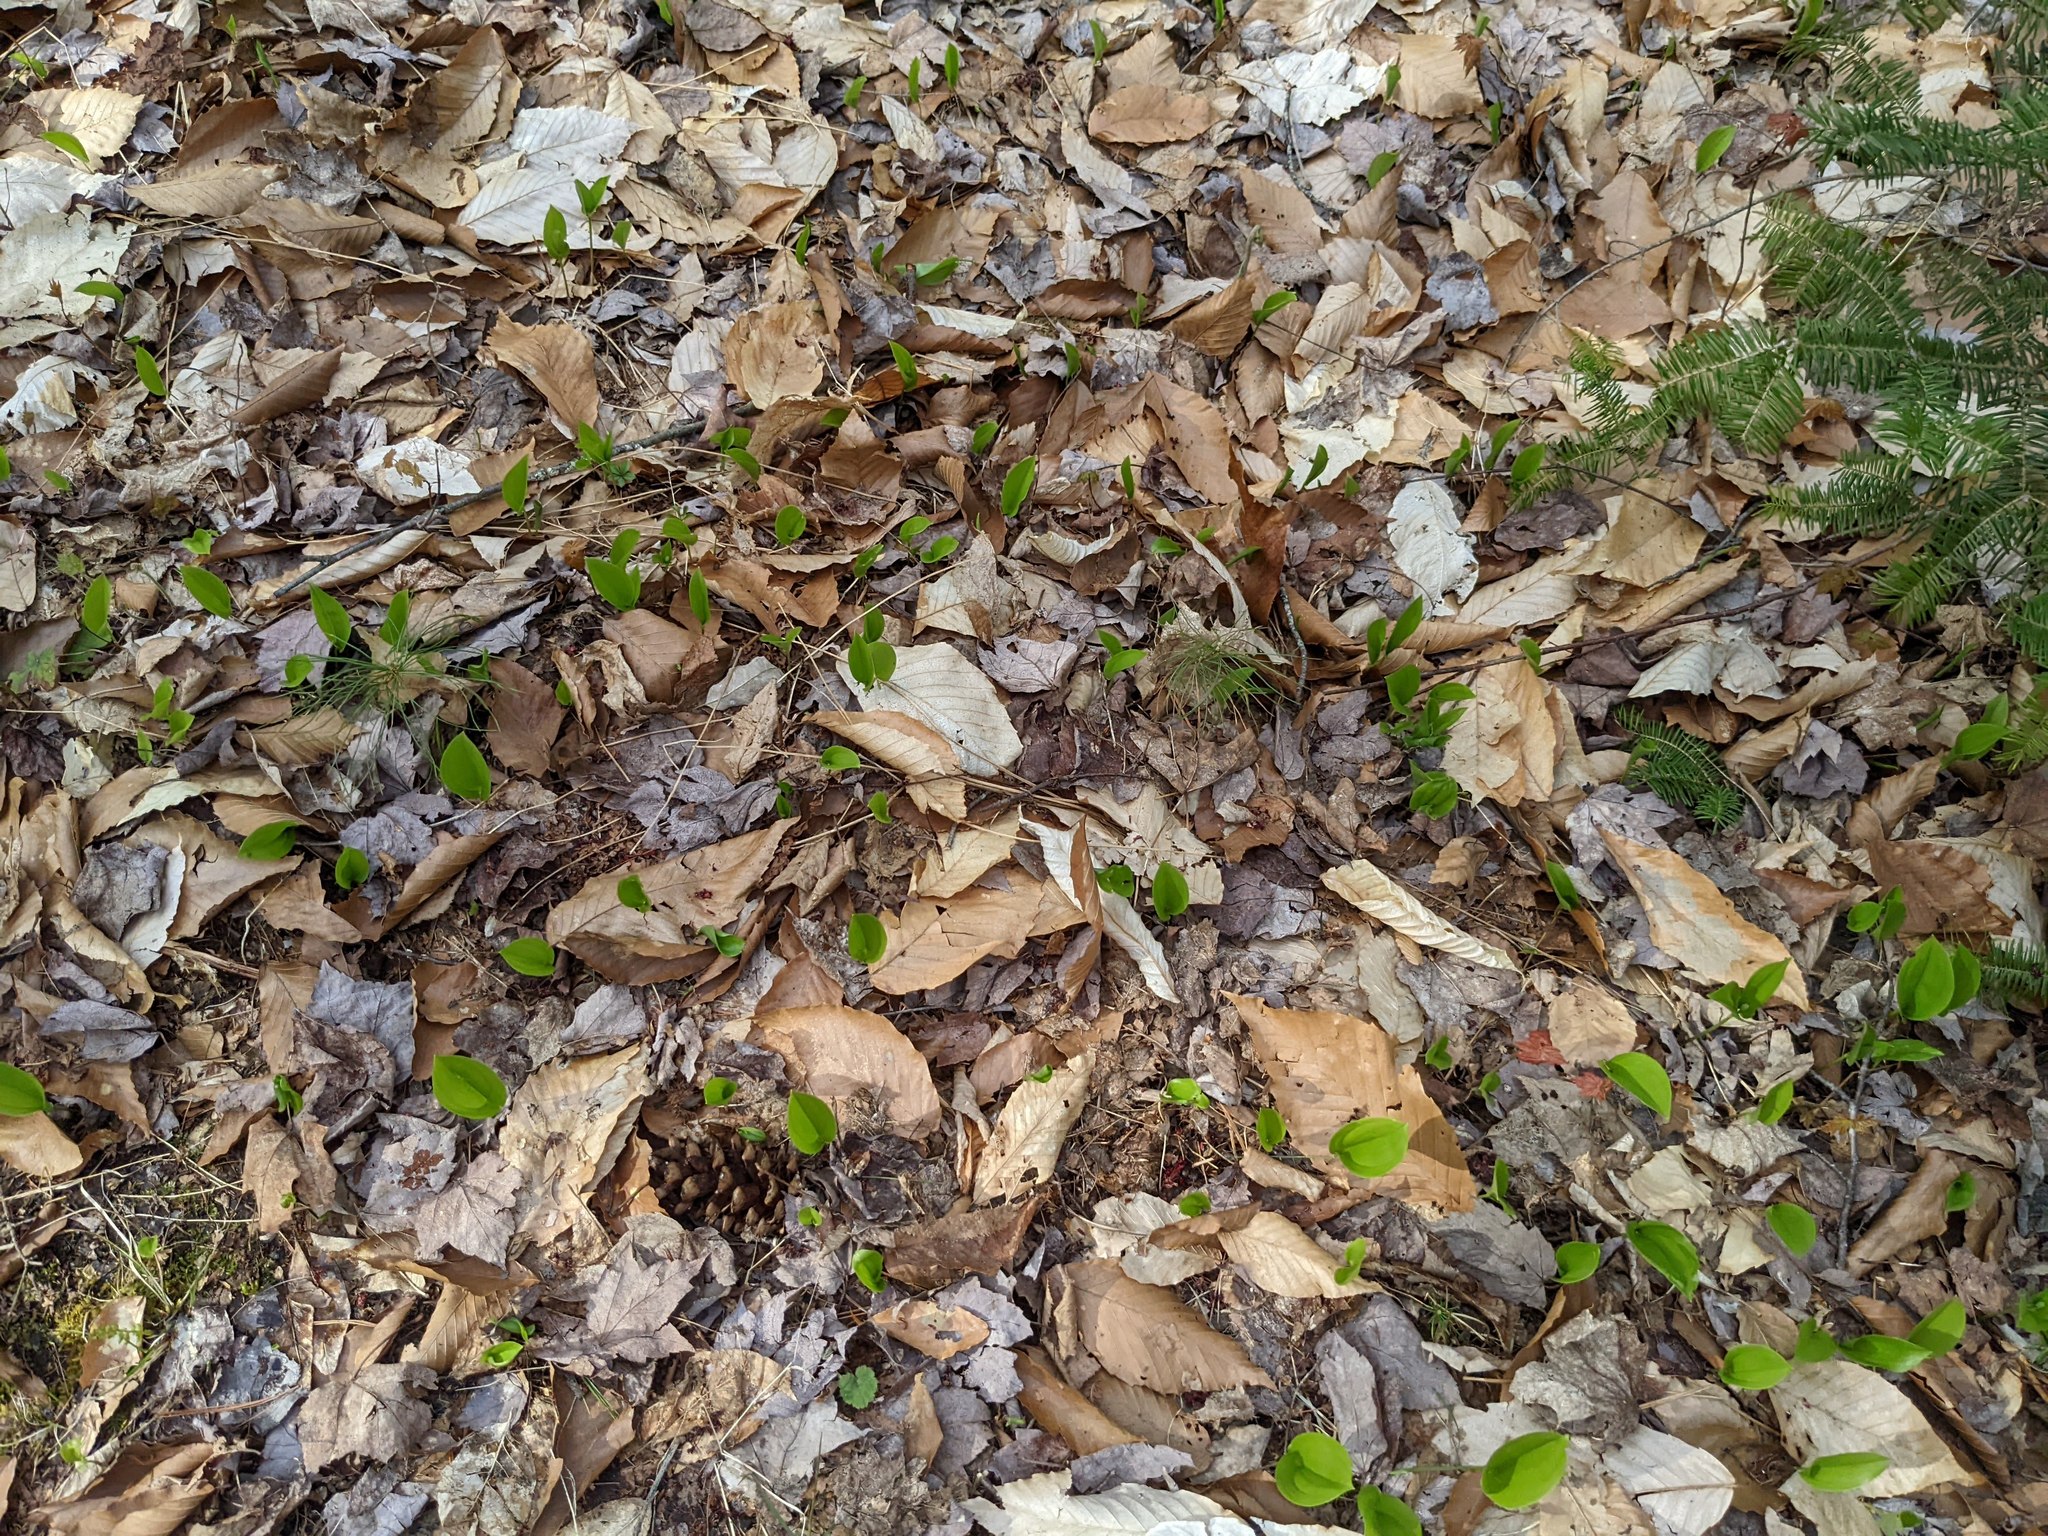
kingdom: Plantae
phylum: Tracheophyta
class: Magnoliopsida
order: Fagales
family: Fagaceae
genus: Fagus
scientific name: Fagus grandifolia
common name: American beech
